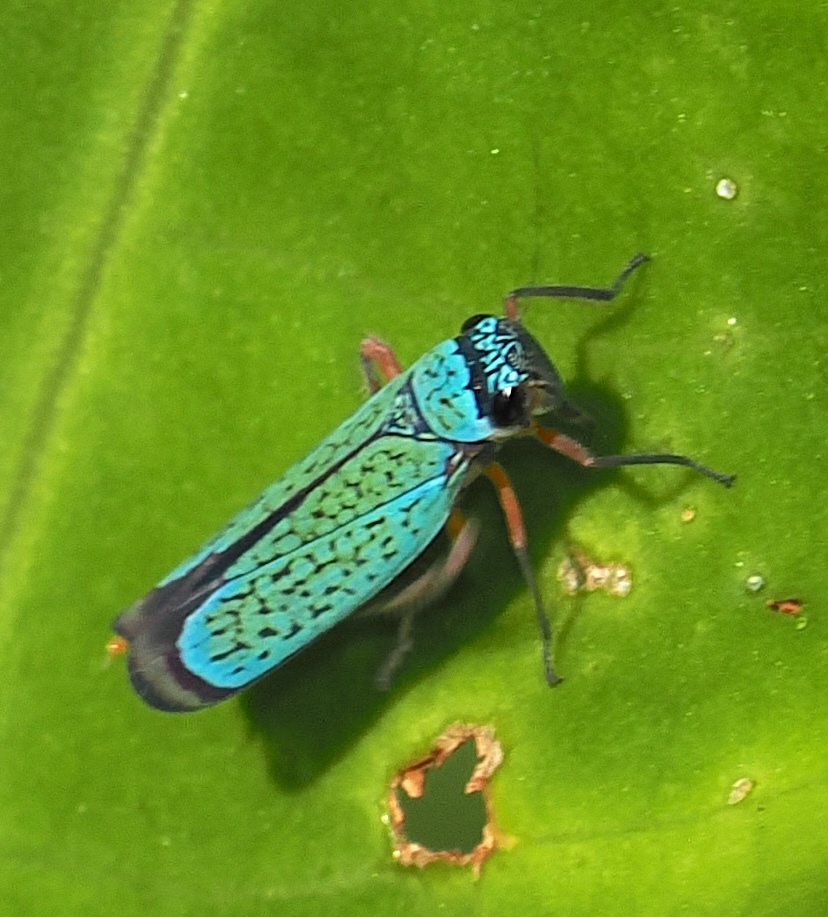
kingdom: Animalia
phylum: Arthropoda
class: Insecta
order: Hemiptera
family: Cicadellidae
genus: Versigonalia
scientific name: Versigonalia ruficauda
